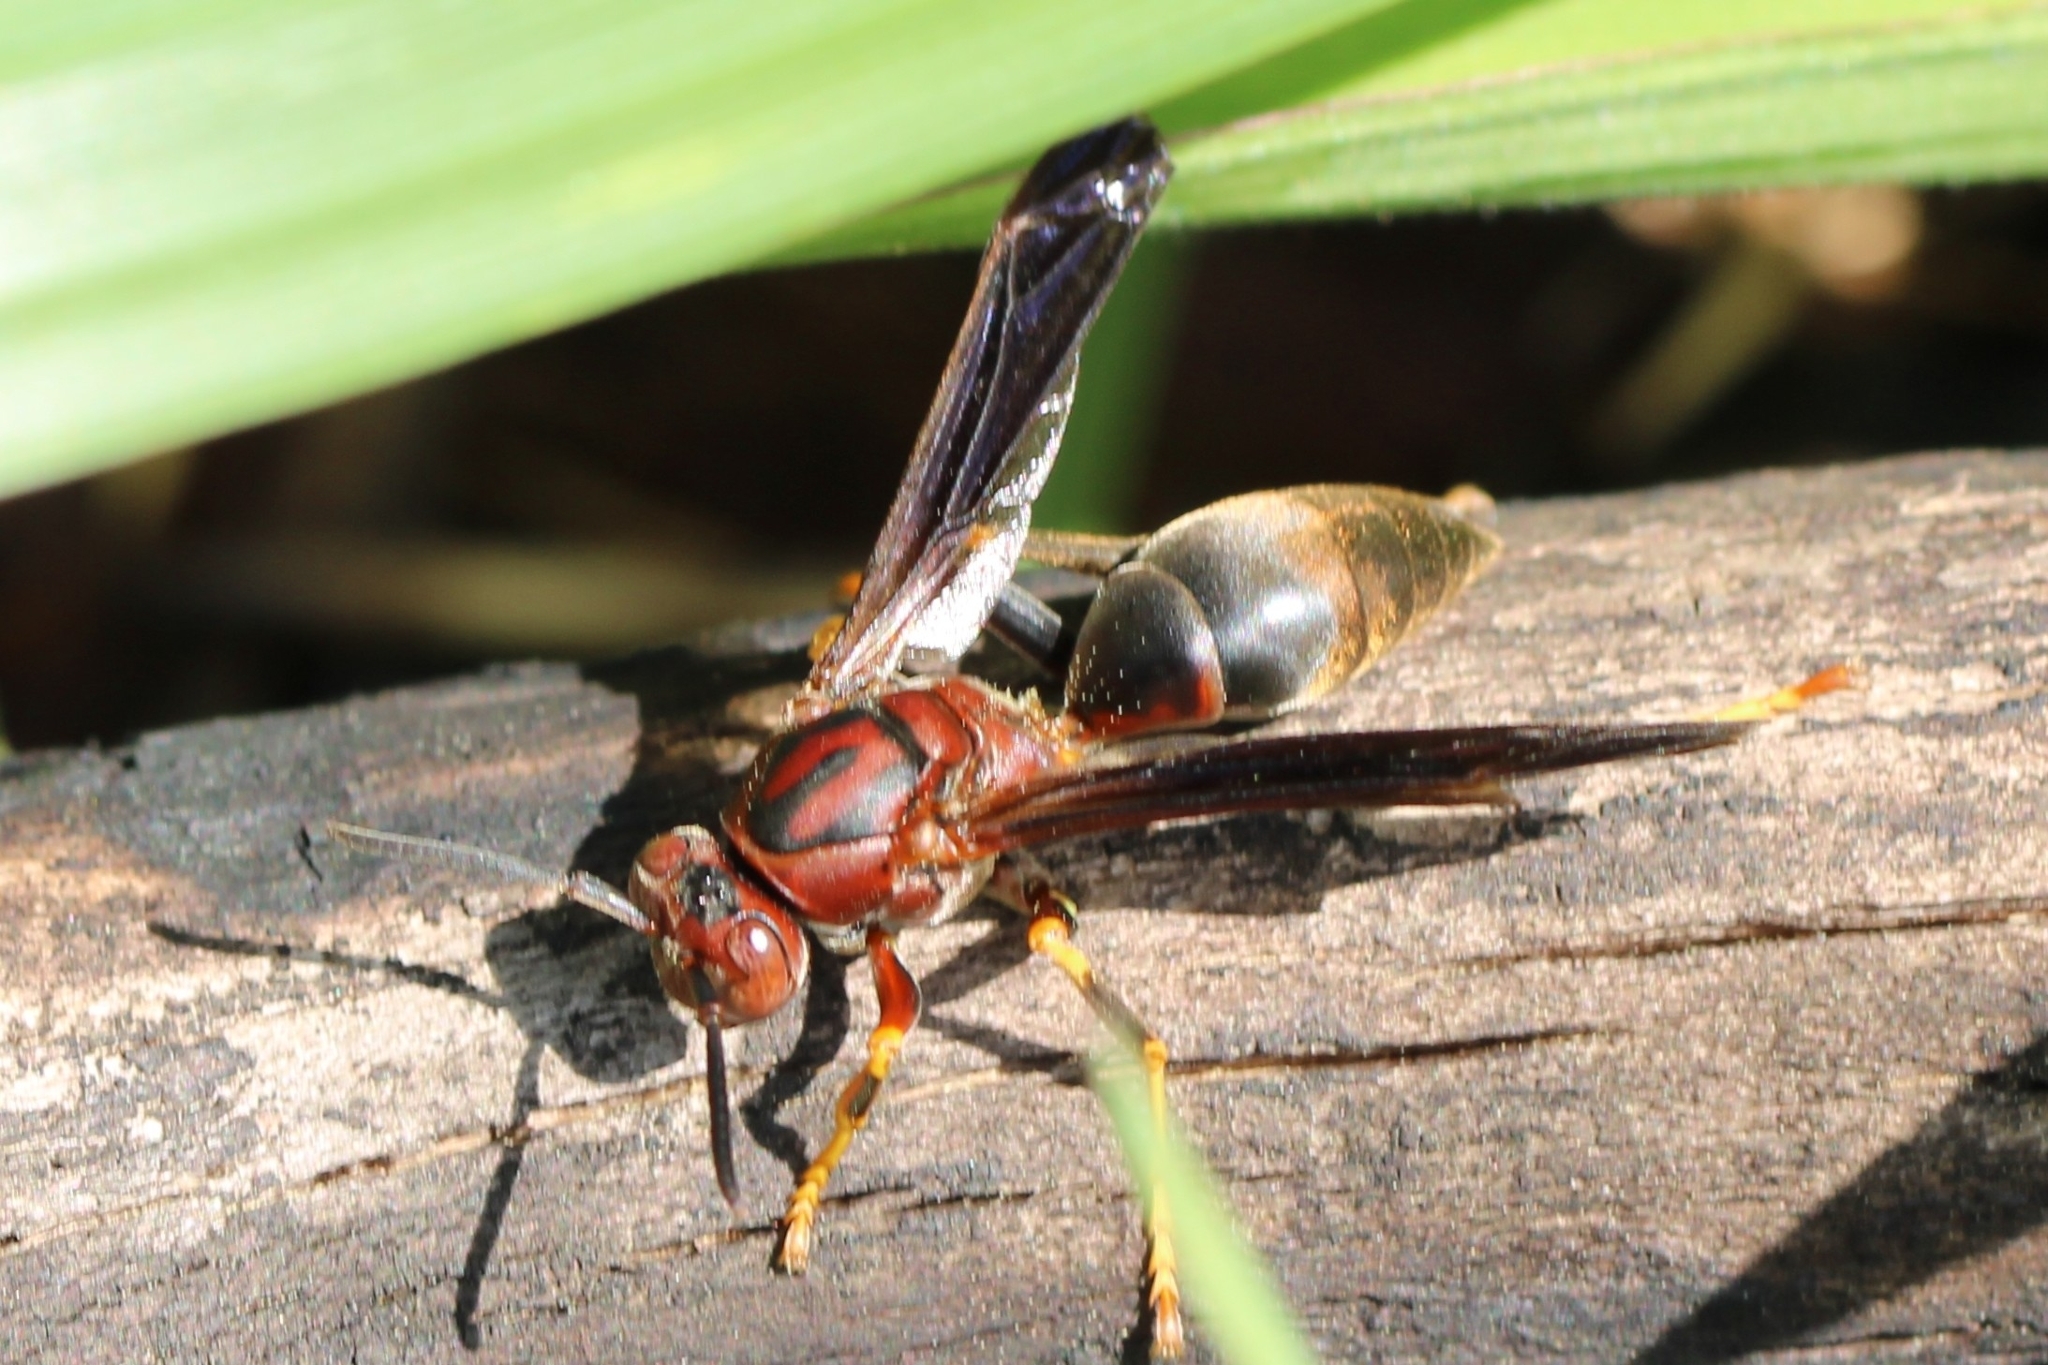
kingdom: Animalia
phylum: Arthropoda
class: Insecta
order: Hymenoptera
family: Eumenidae
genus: Polistes
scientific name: Polistes metricus
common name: Metric paper wasp
